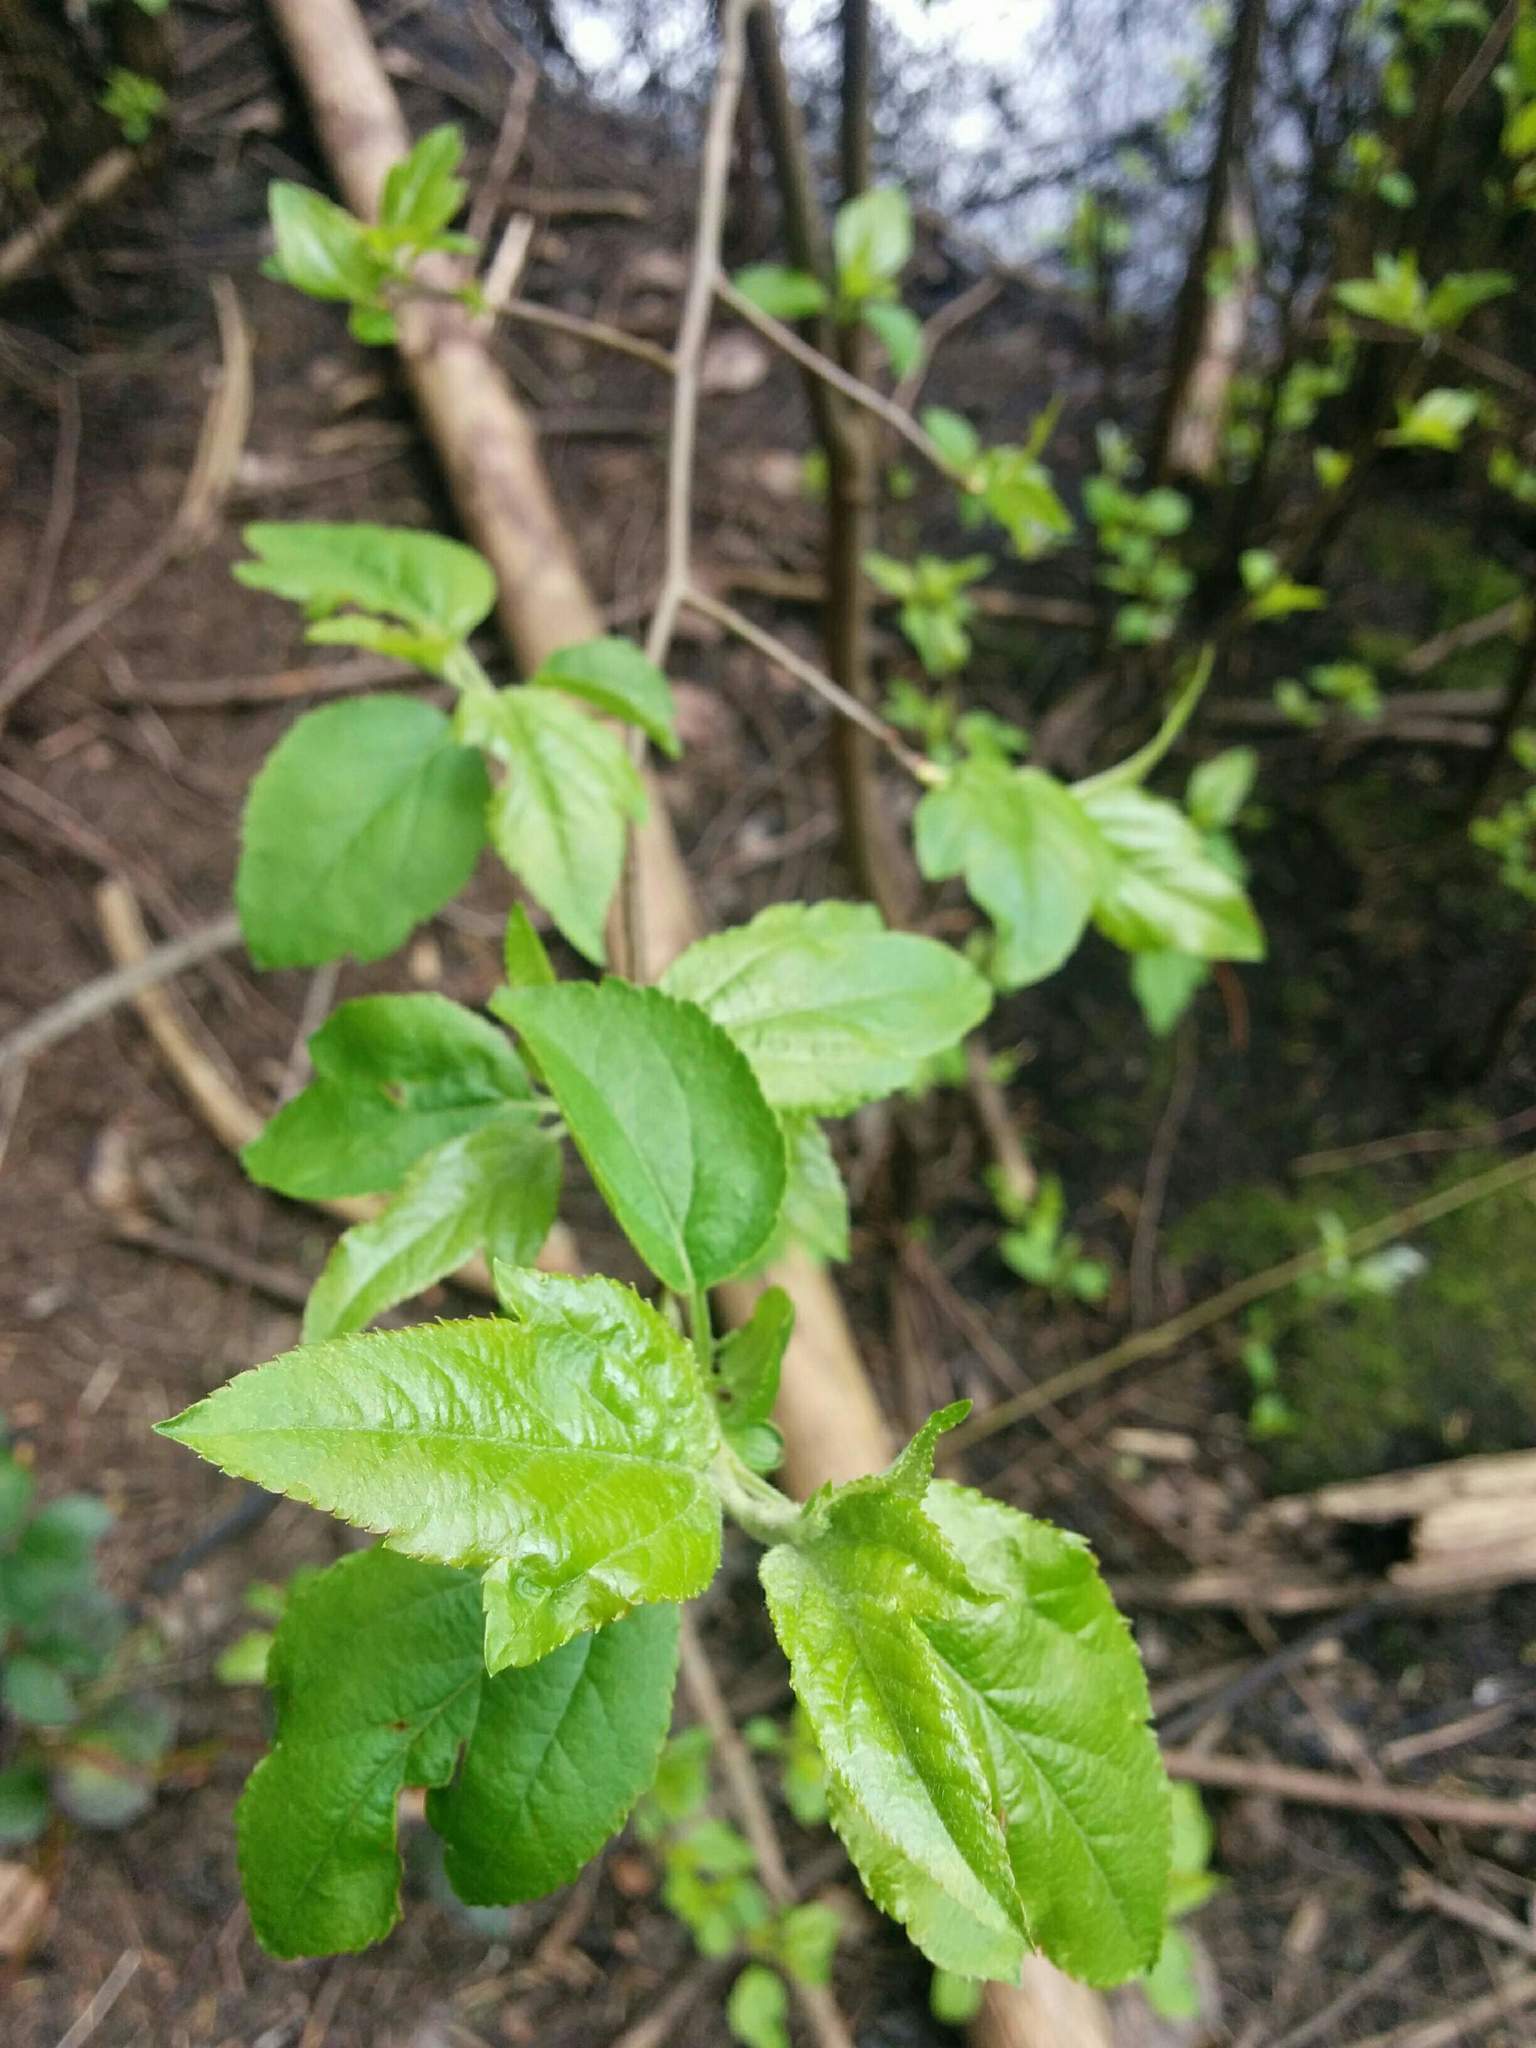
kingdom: Plantae
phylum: Tracheophyta
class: Magnoliopsida
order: Rosales
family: Rosaceae
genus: Malus
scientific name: Malus fusca
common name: Oregon crab apple
